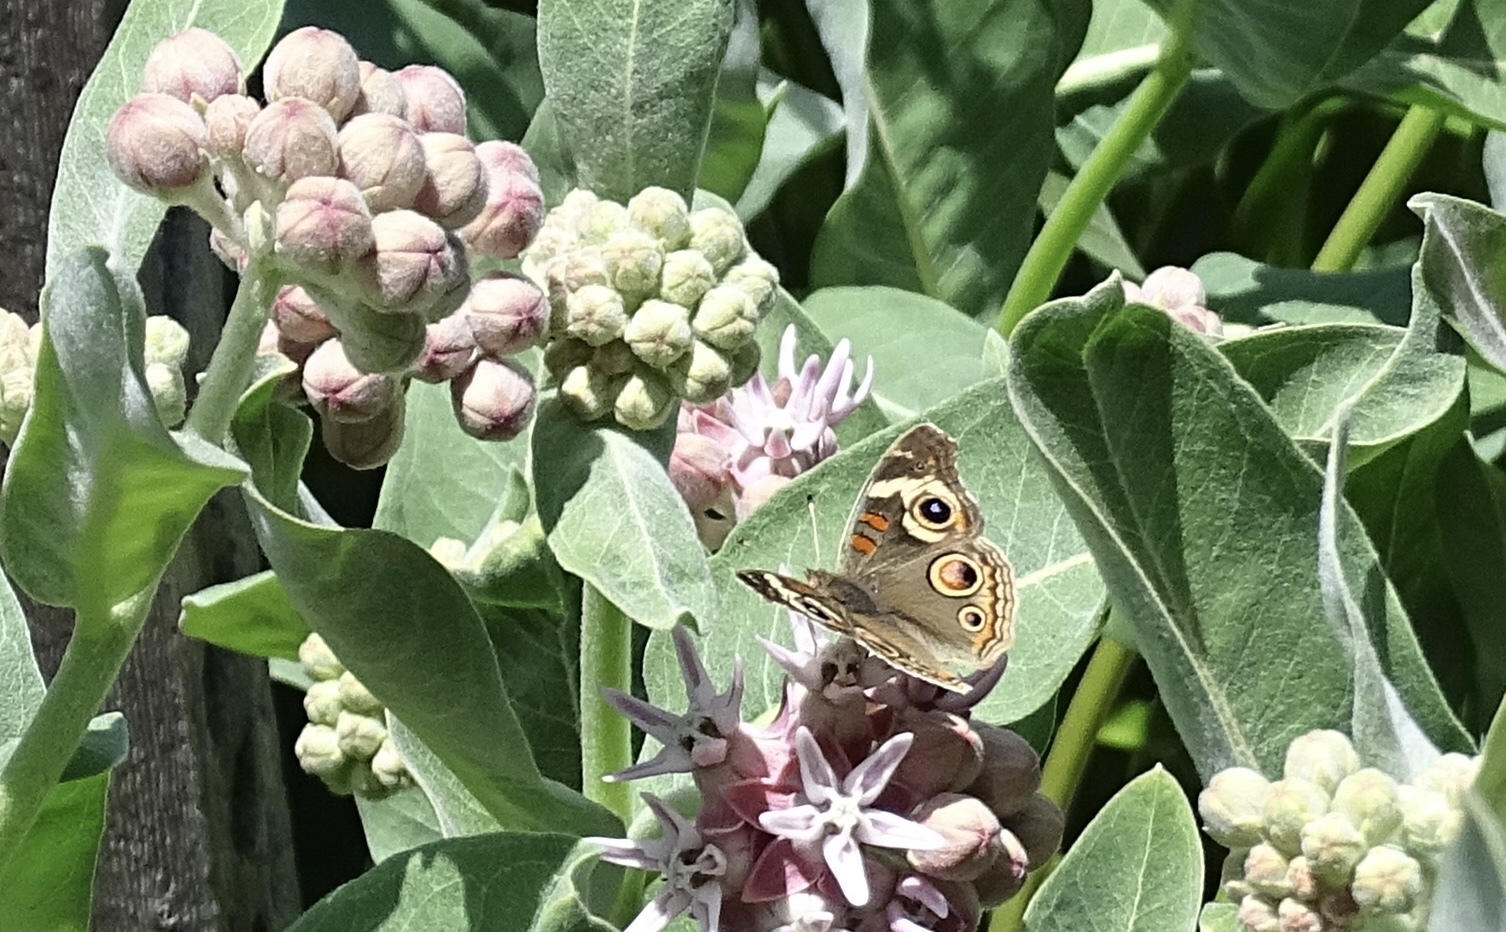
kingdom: Animalia
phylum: Arthropoda
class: Insecta
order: Lepidoptera
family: Nymphalidae
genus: Junonia
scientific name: Junonia grisea
